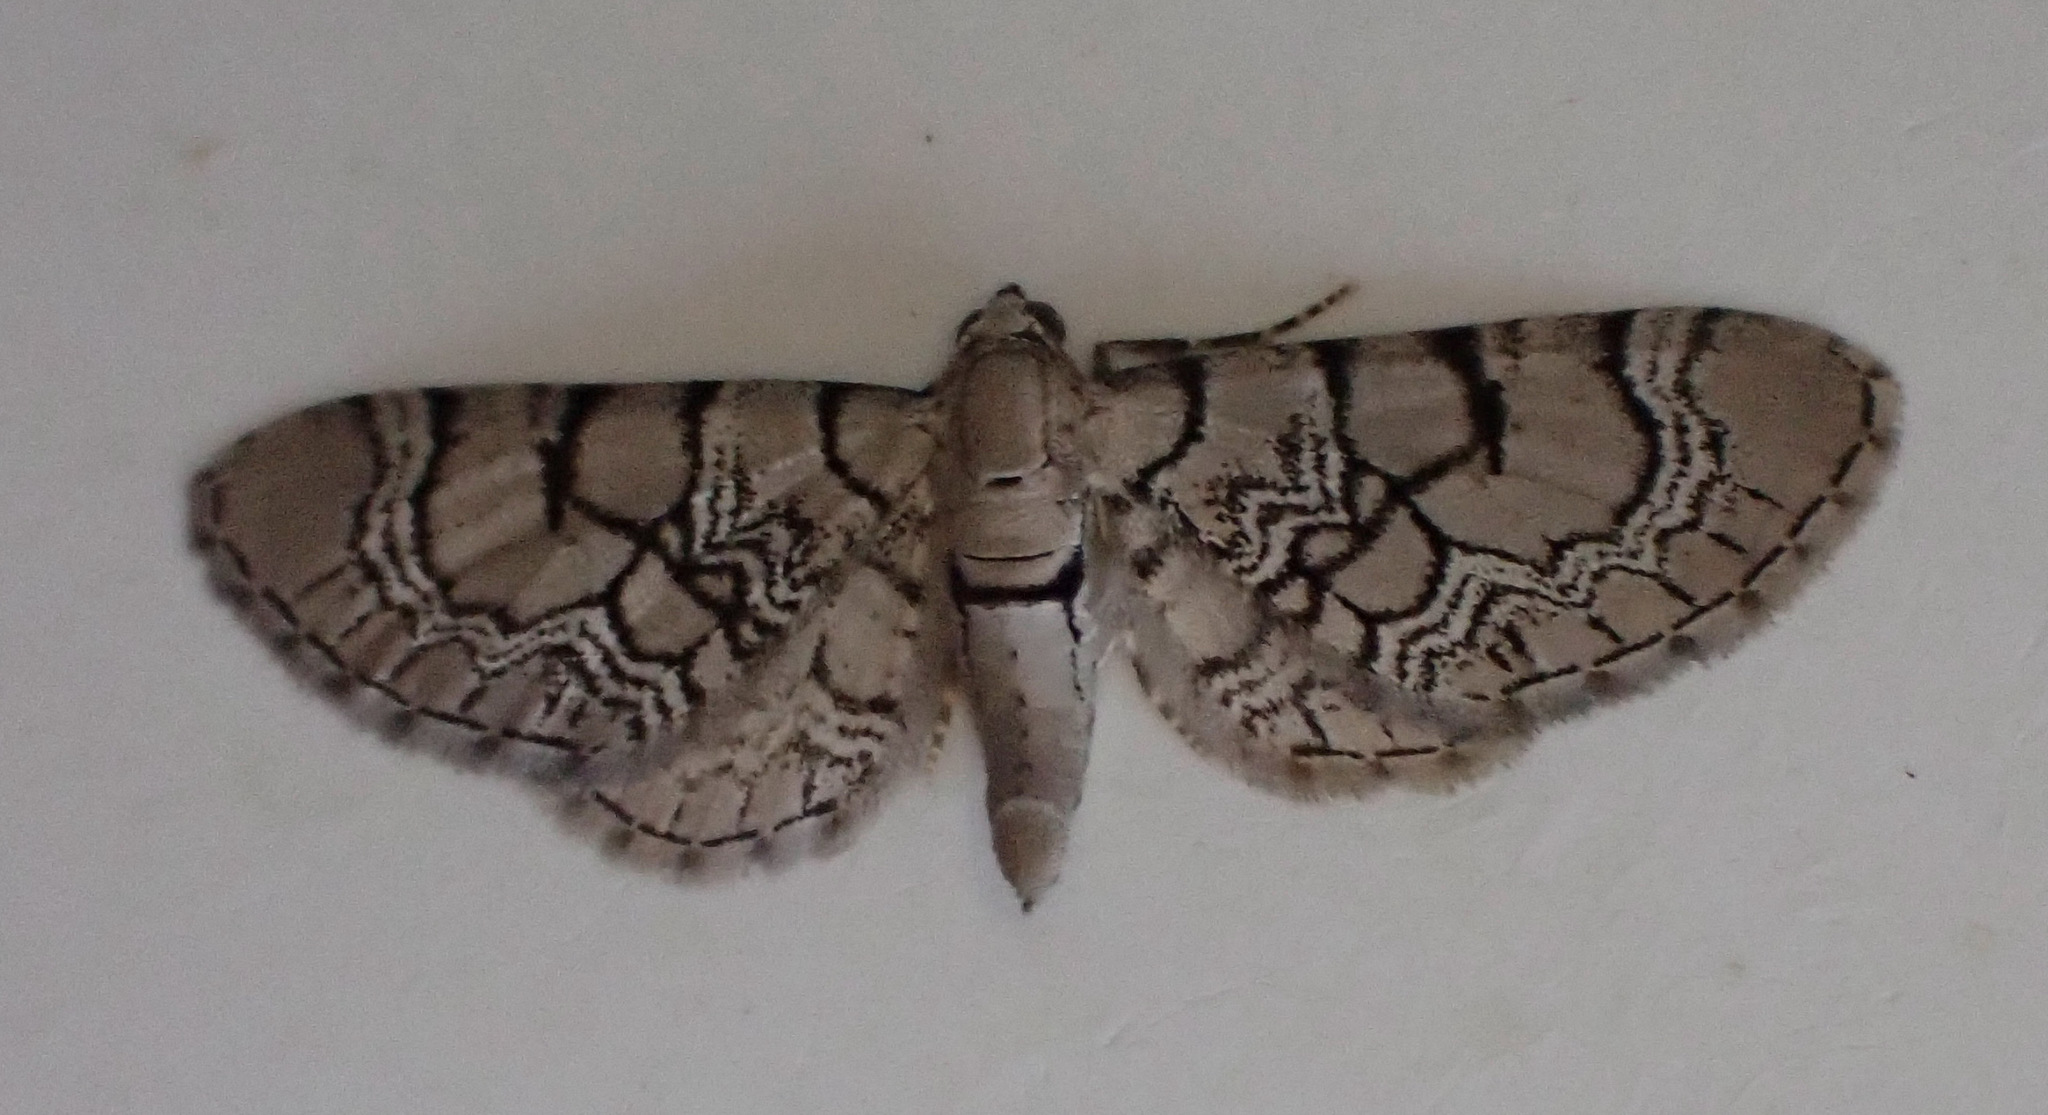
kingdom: Animalia
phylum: Arthropoda
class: Insecta
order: Lepidoptera
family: Geometridae
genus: Eupithecia
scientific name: Eupithecia venosata
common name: Netted pug
